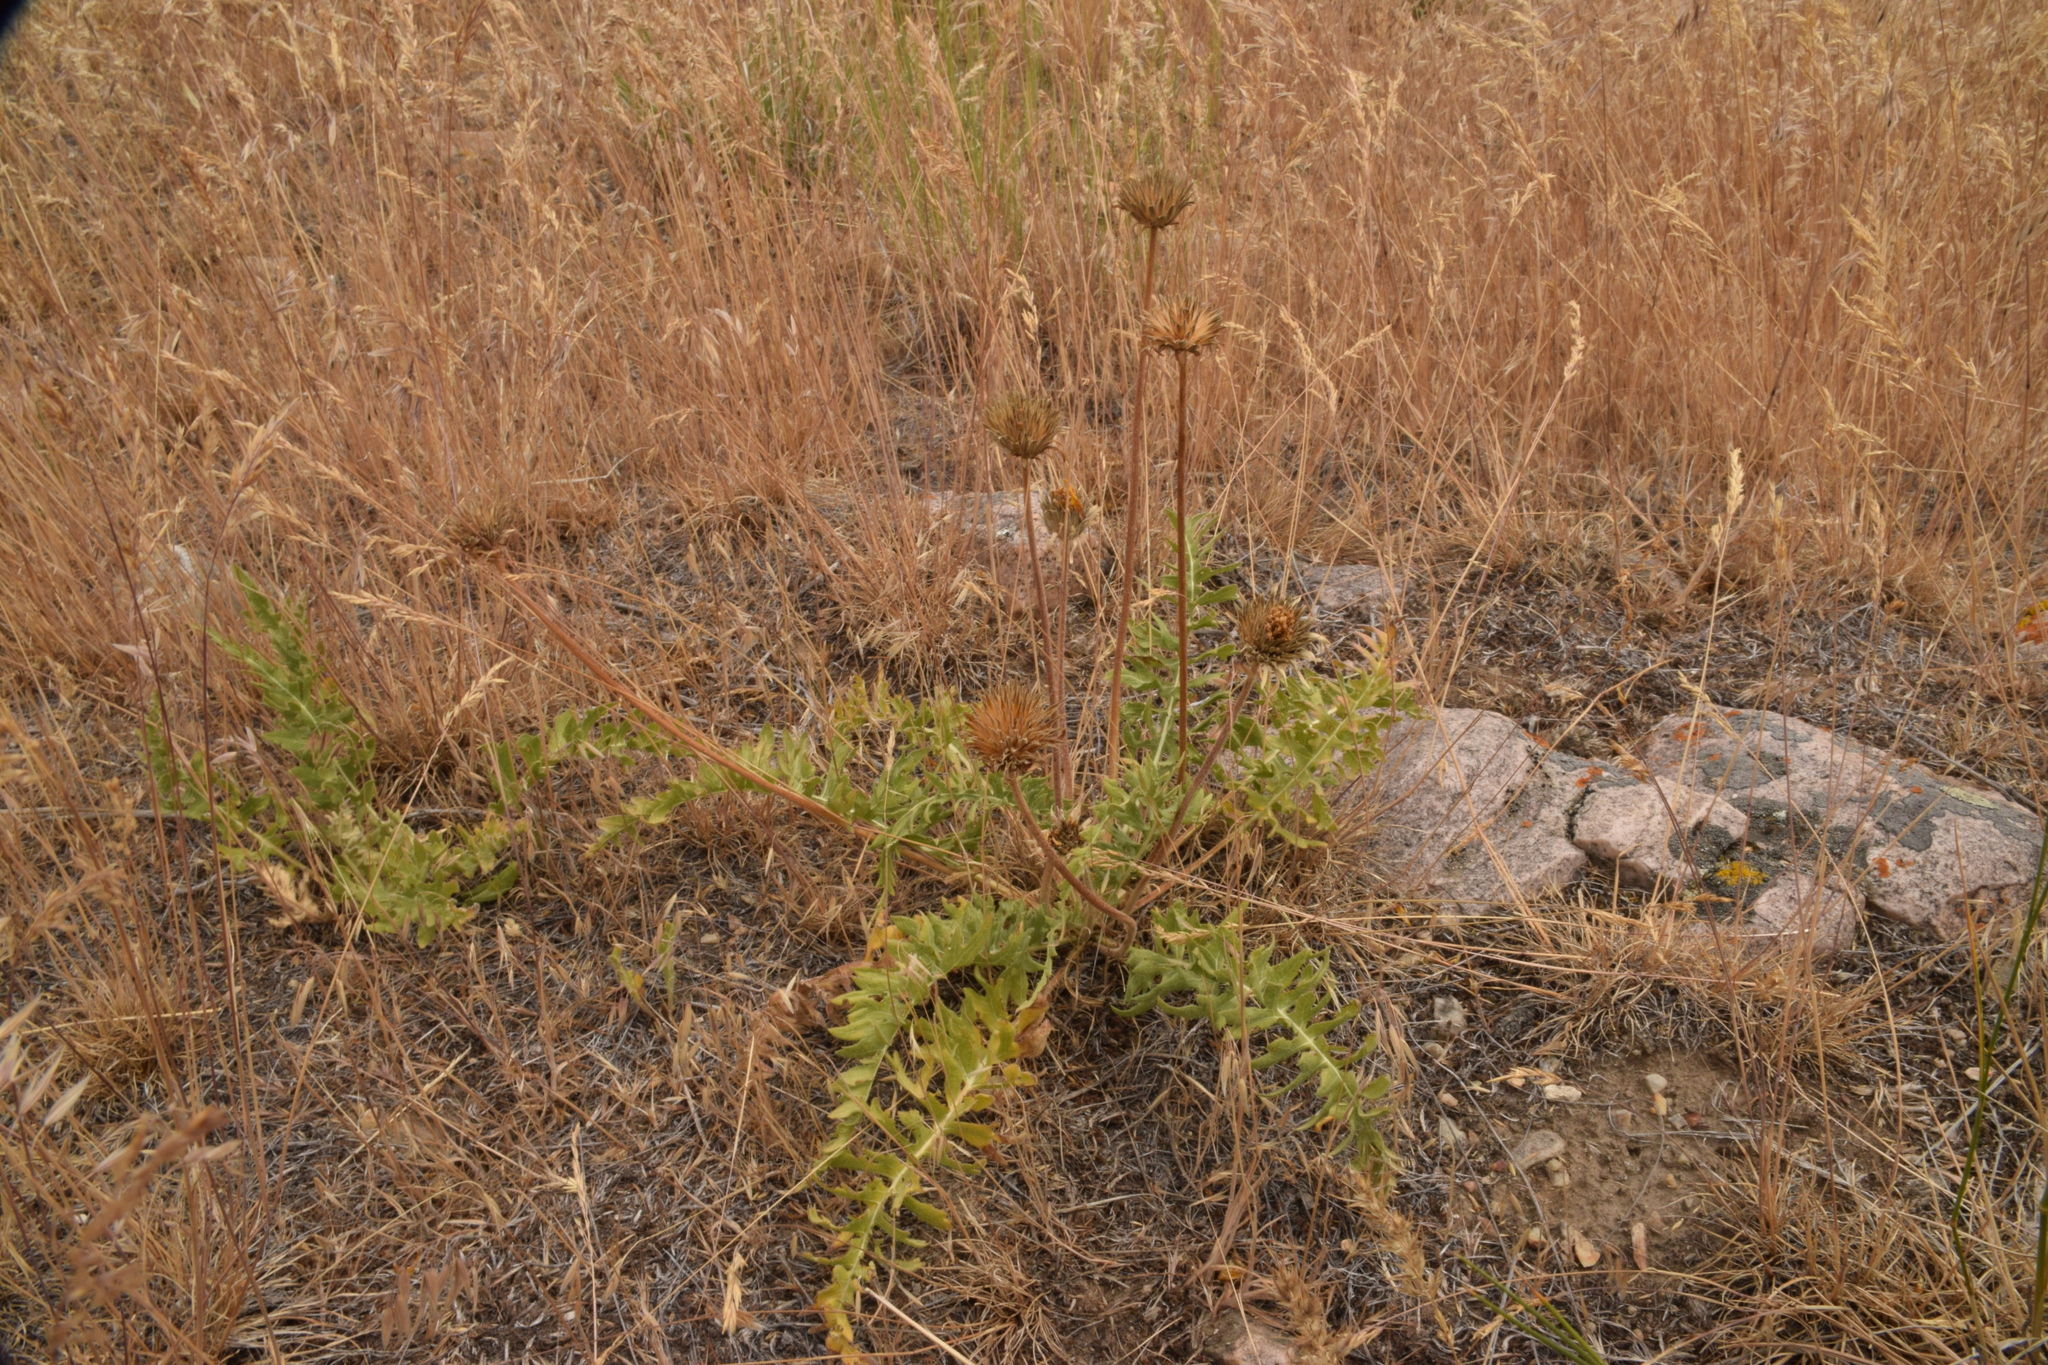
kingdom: Plantae
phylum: Tracheophyta
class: Magnoliopsida
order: Asterales
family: Asteraceae
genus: Balsamorhiza
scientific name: Balsamorhiza hookeri
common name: Hooker's balsamroot
